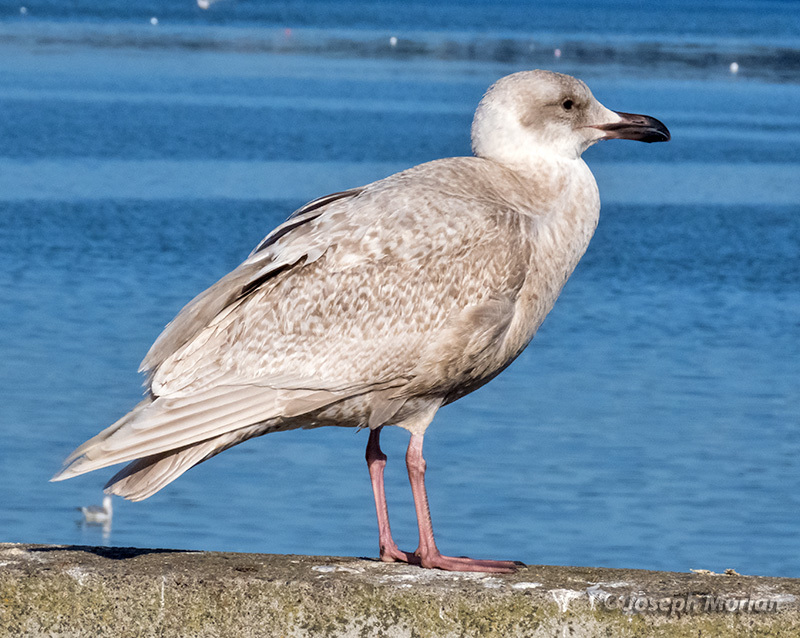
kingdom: Animalia
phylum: Chordata
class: Aves
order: Charadriiformes
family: Laridae
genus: Larus
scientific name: Larus glaucescens
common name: Glaucous-winged gull
